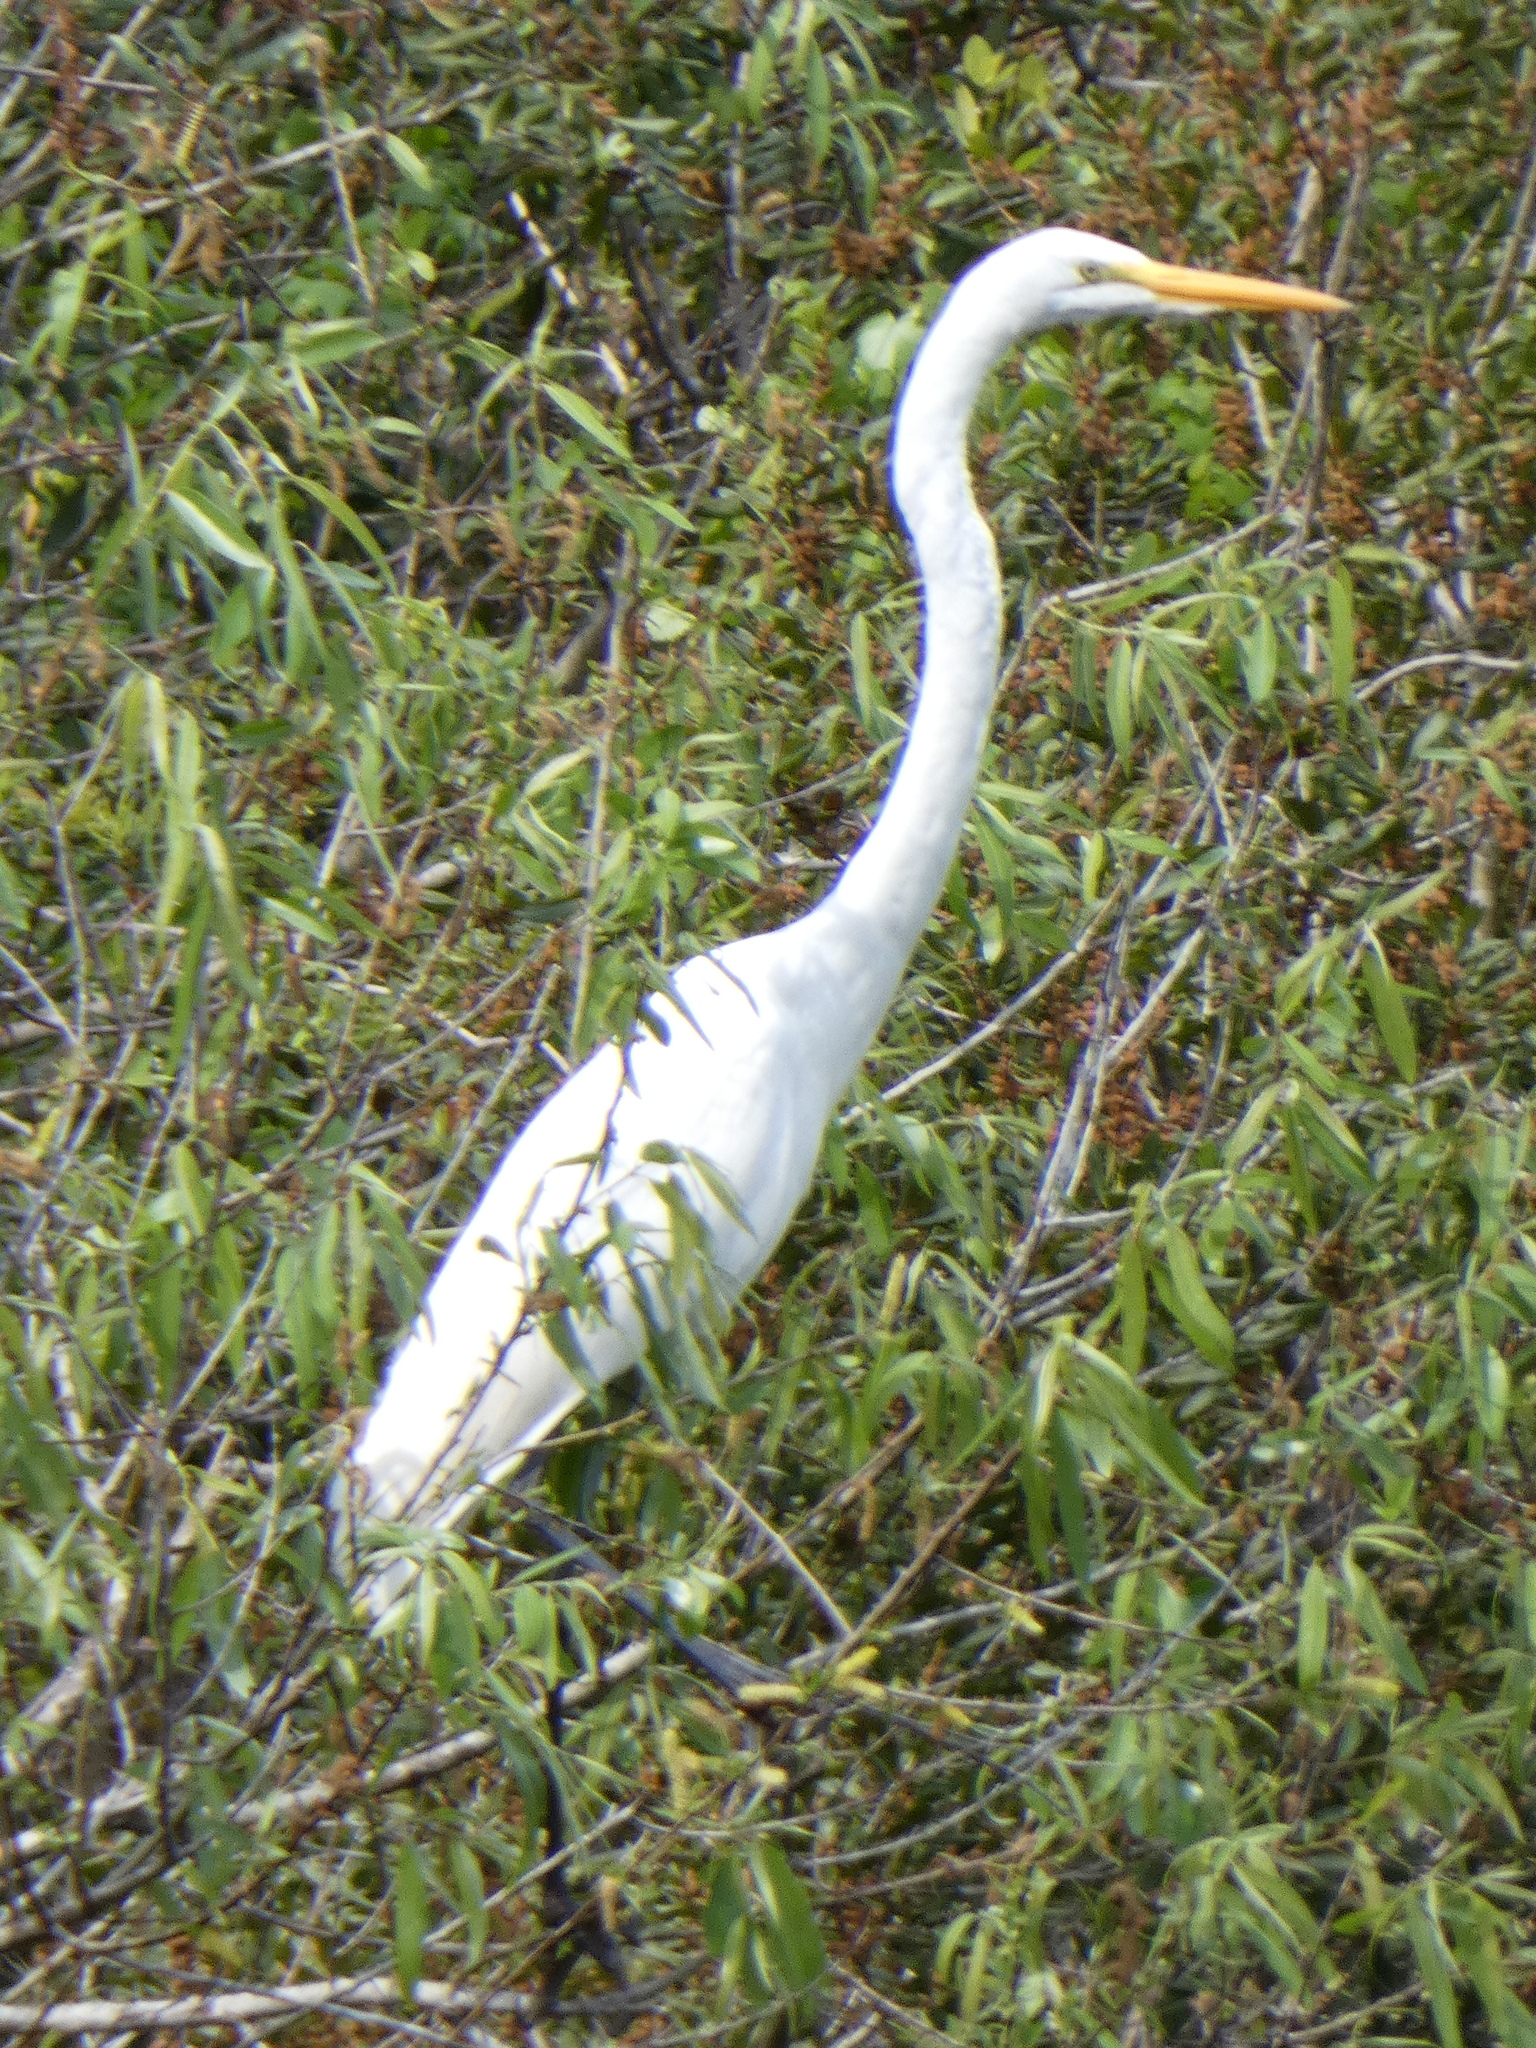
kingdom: Animalia
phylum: Chordata
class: Aves
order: Pelecaniformes
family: Ardeidae
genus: Ardea
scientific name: Ardea alba
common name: Great egret
